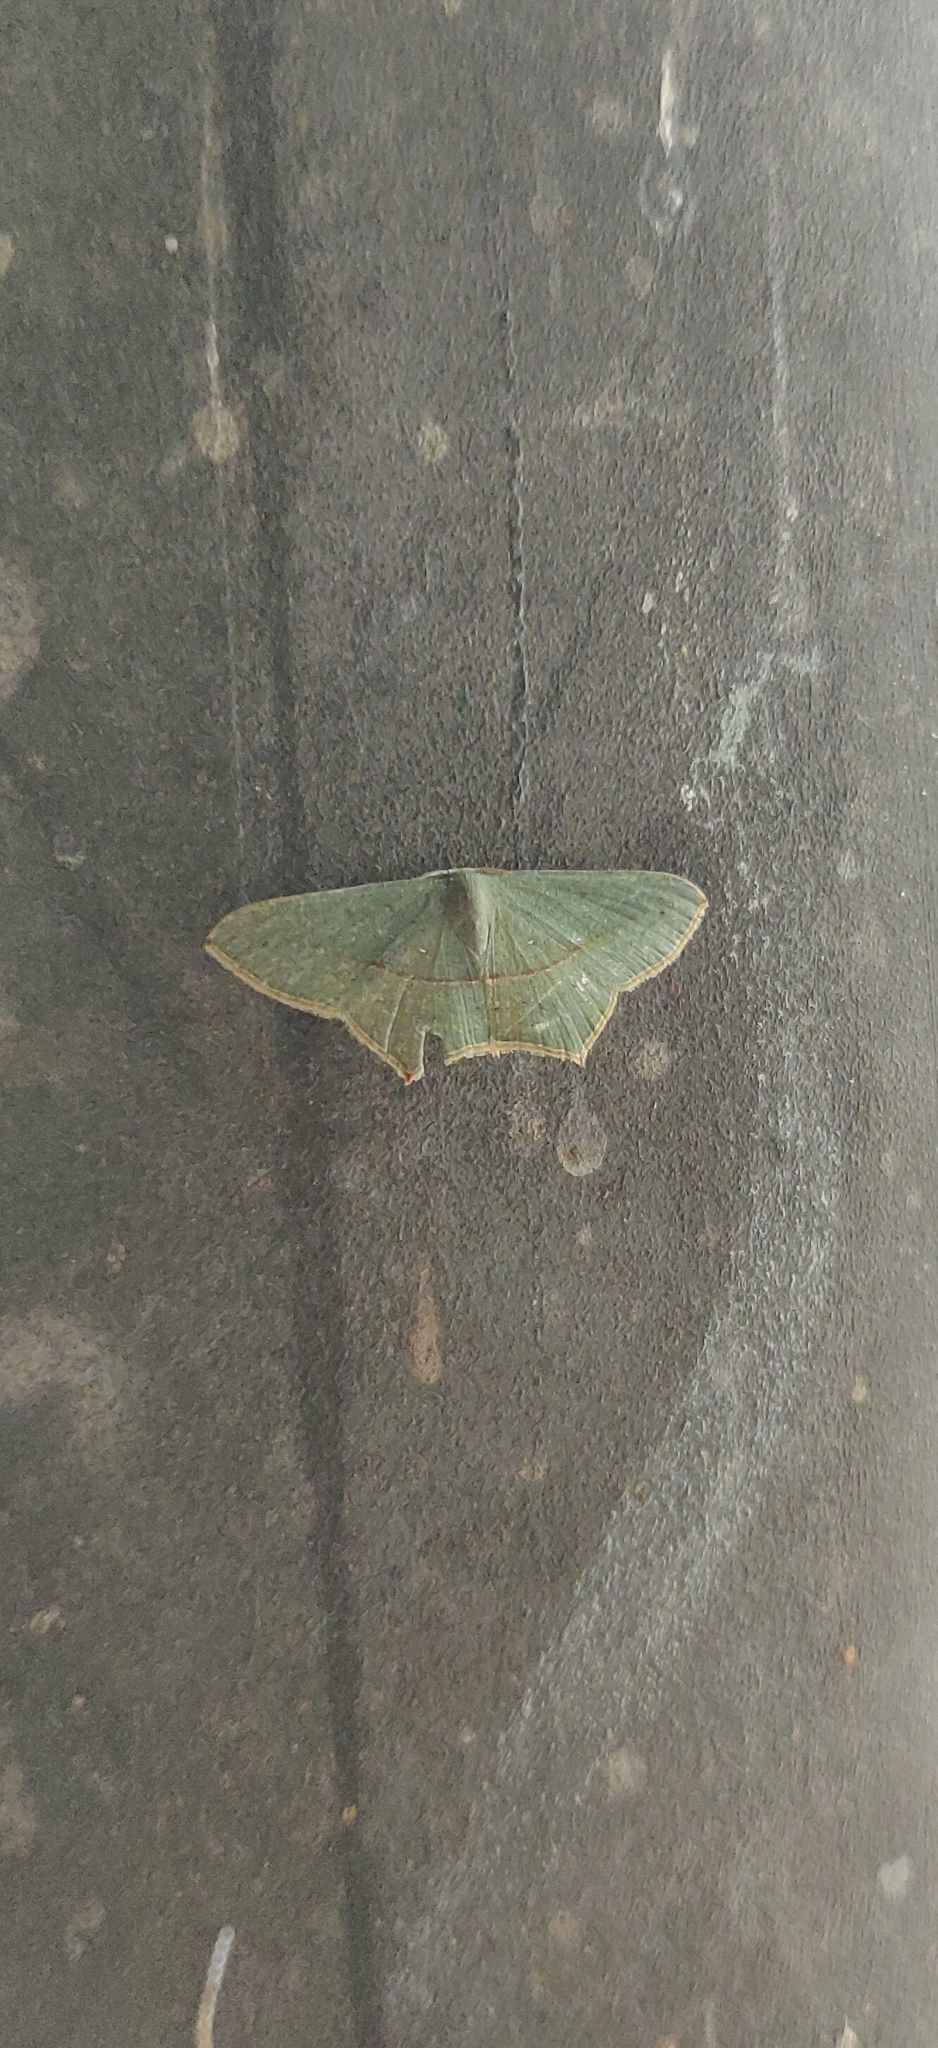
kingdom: Animalia
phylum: Arthropoda
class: Insecta
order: Lepidoptera
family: Geometridae
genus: Traminda
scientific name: Traminda mundissima
